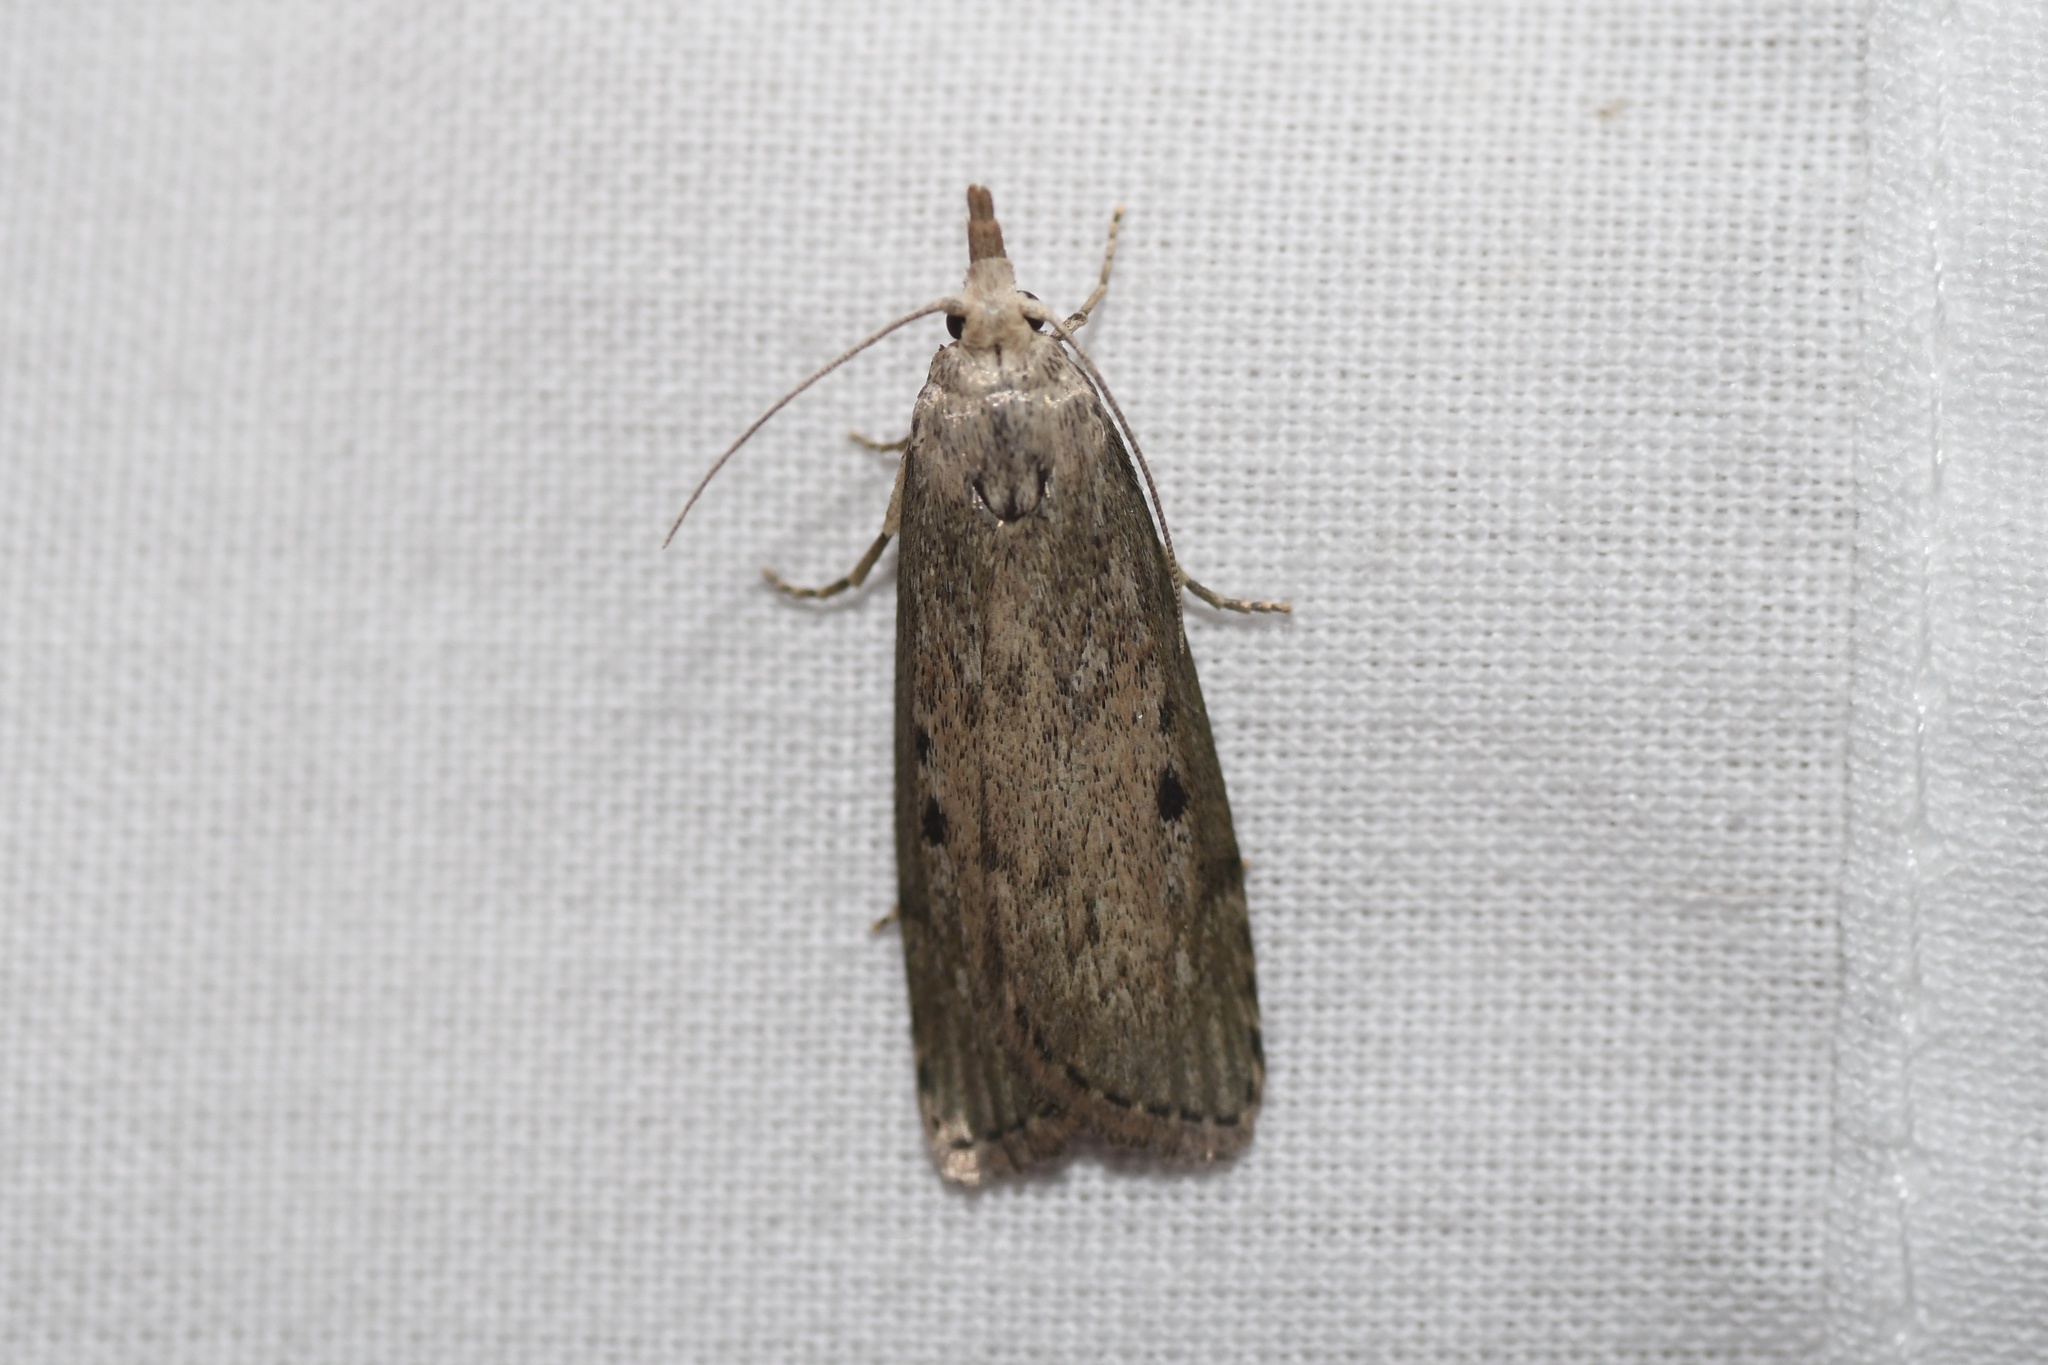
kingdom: Animalia
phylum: Arthropoda
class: Insecta
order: Lepidoptera
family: Pyralidae
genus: Aphomia
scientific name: Aphomia sociella
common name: Bee moth
